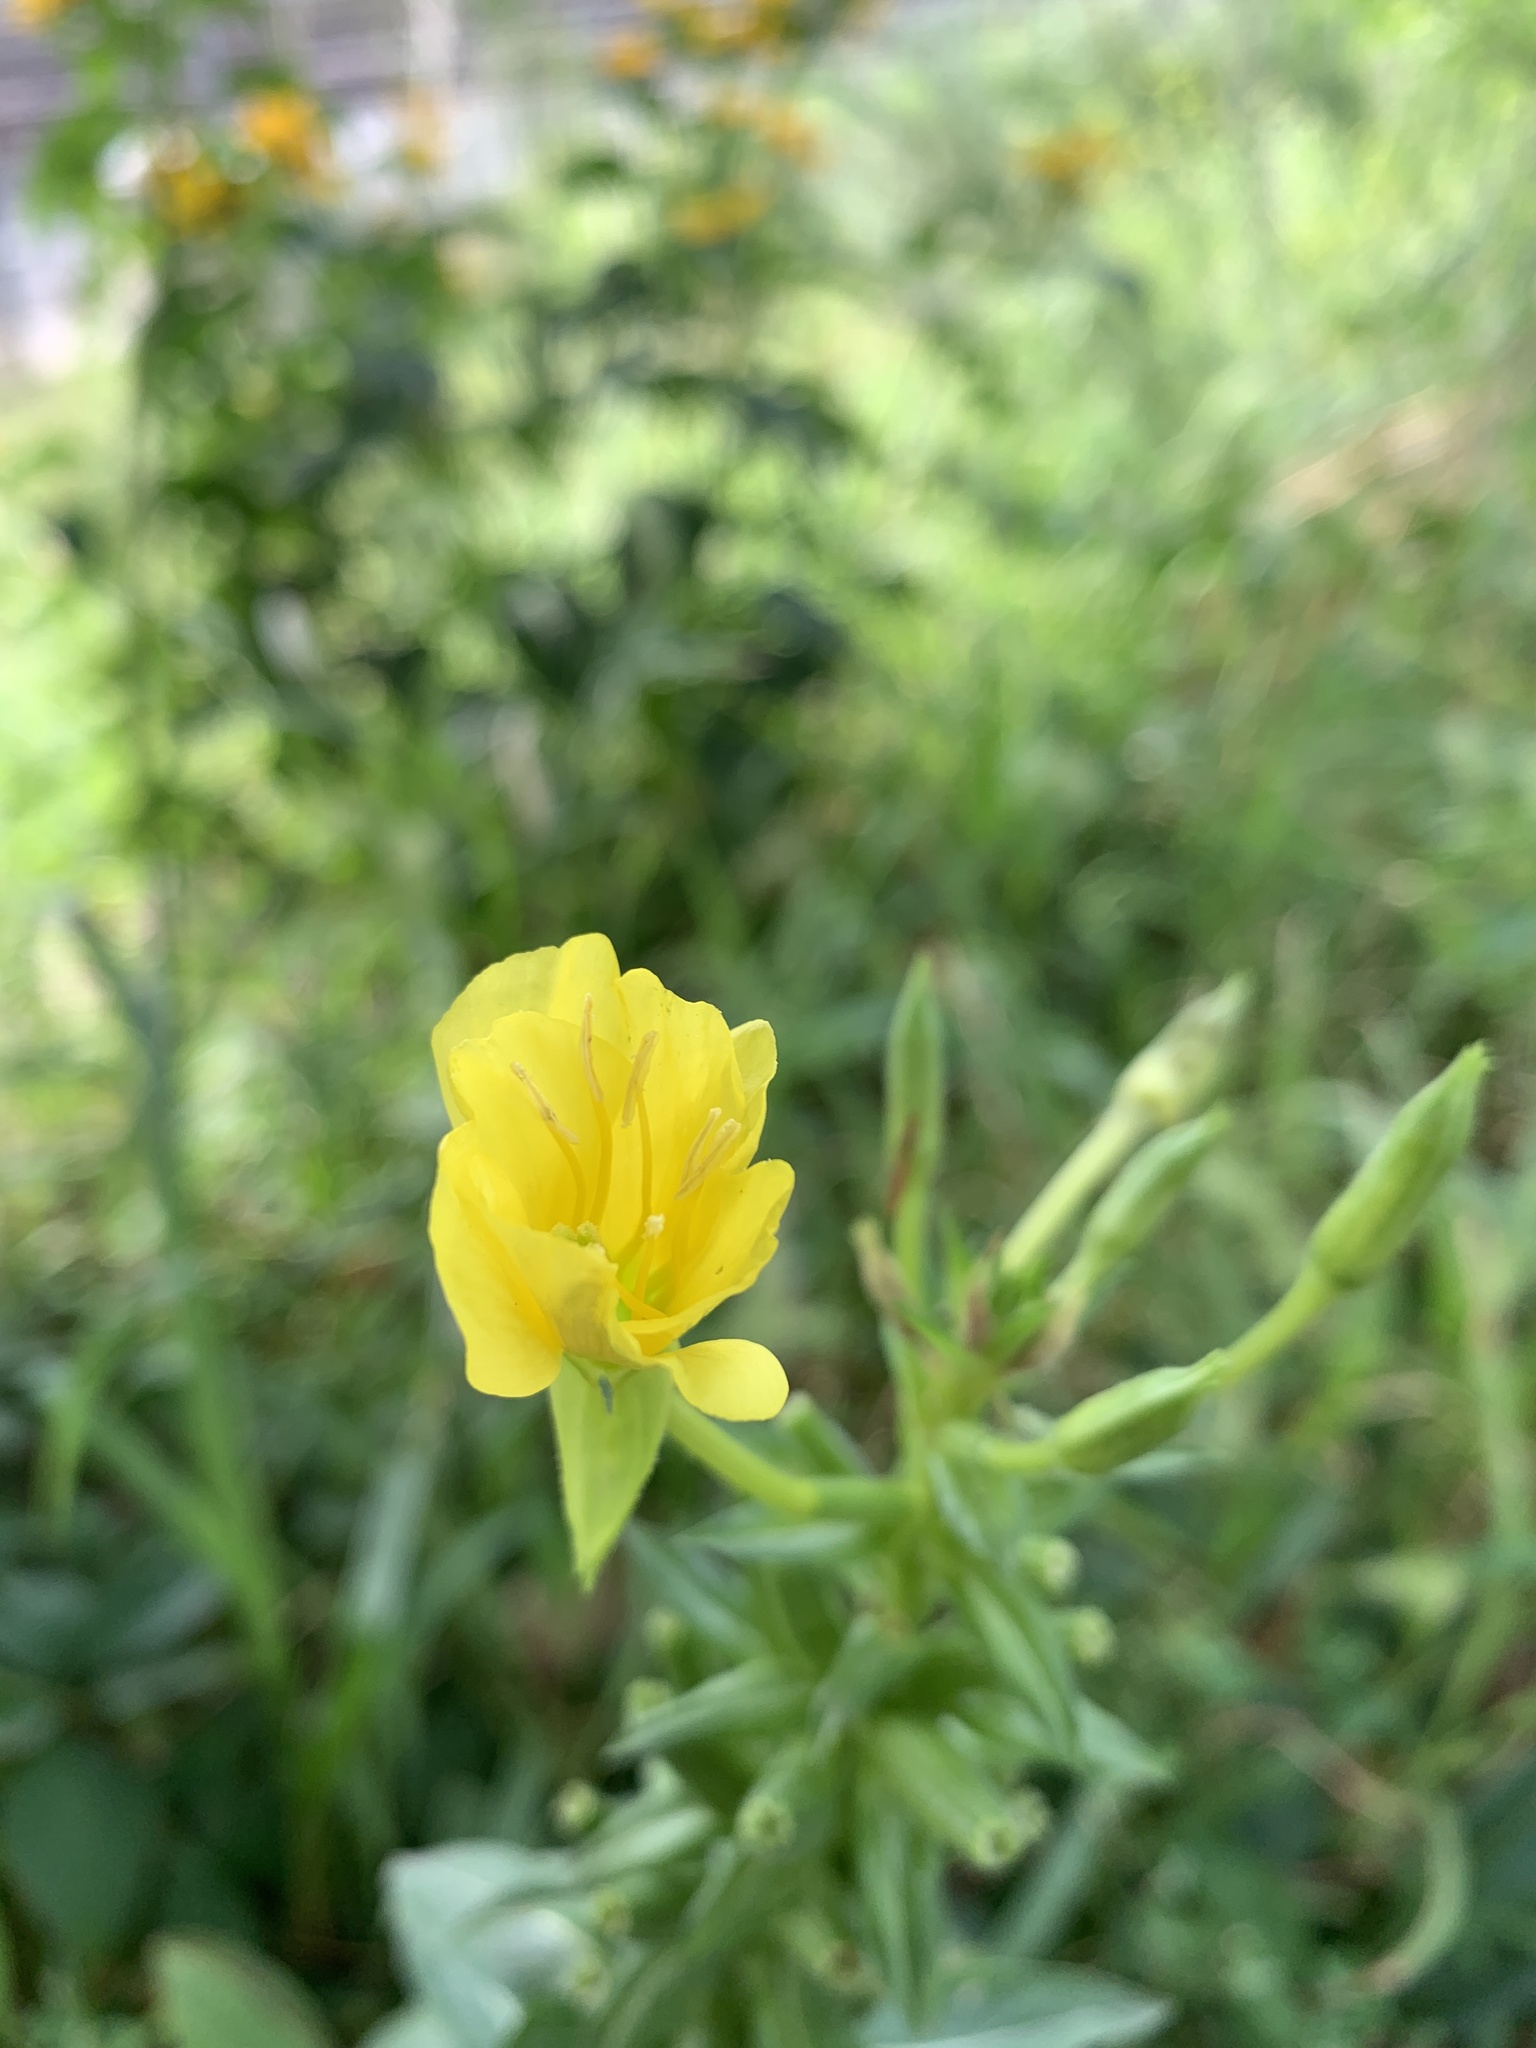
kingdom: Plantae
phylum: Tracheophyta
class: Magnoliopsida
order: Myrtales
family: Onagraceae
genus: Oenothera
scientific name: Oenothera biennis
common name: Common evening-primrose
